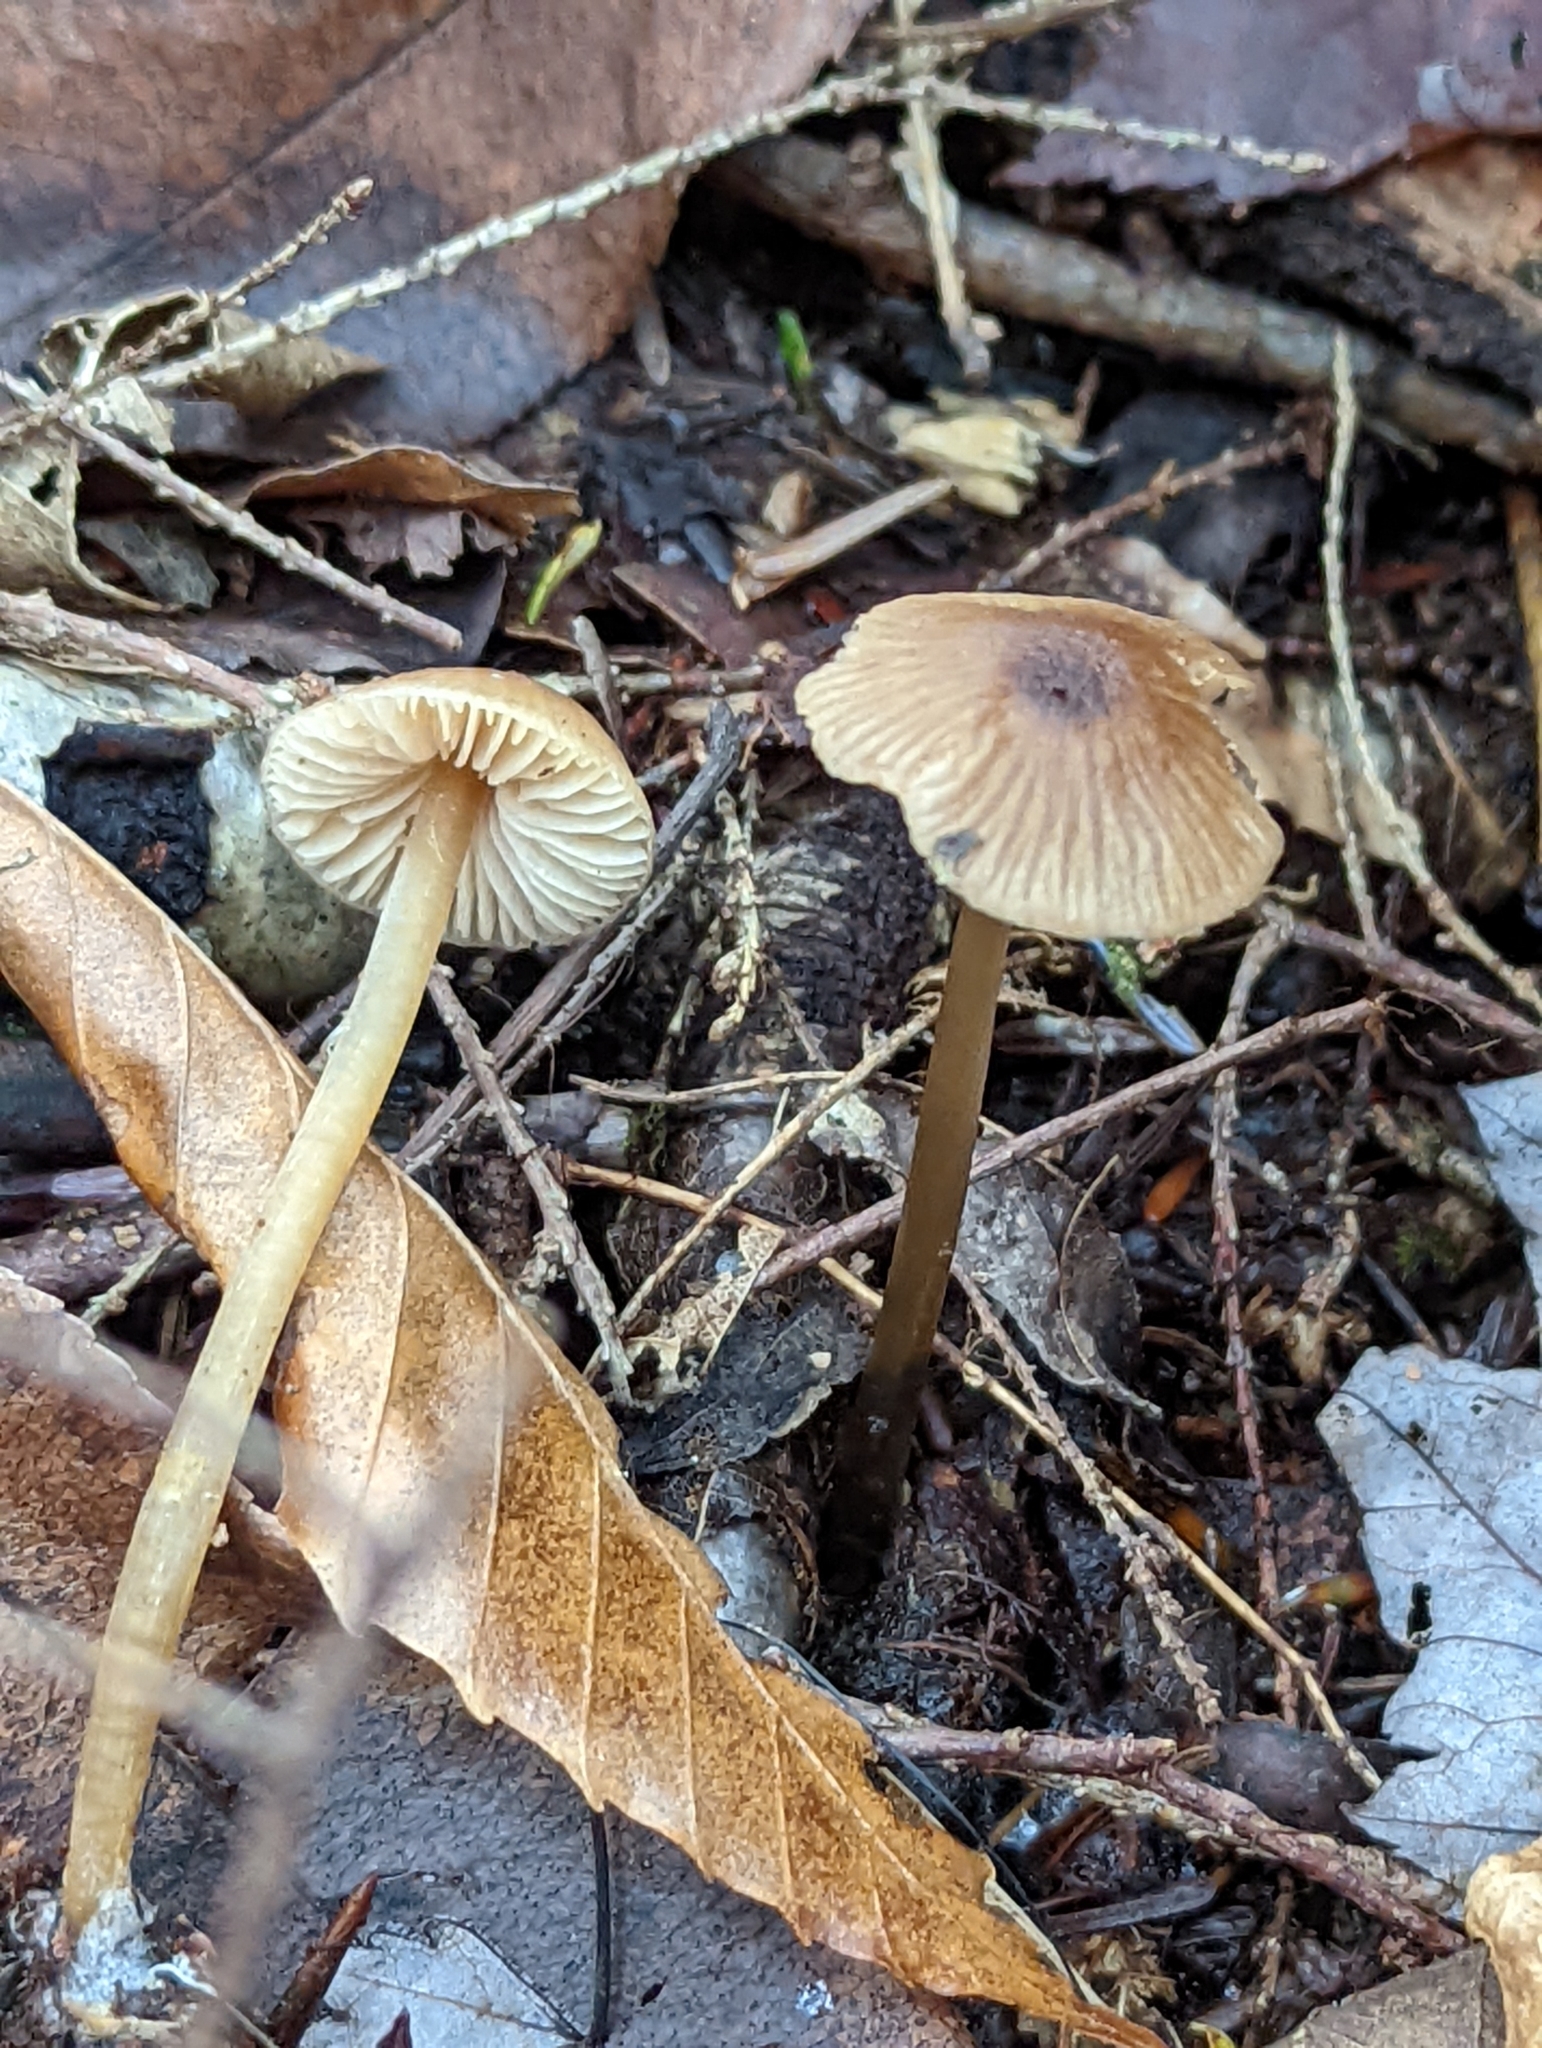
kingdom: Fungi
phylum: Basidiomycota
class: Agaricomycetes
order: Agaricales
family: Entolomataceae
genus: Entoloma
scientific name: Entoloma cetratum
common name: Honey pinkgill
